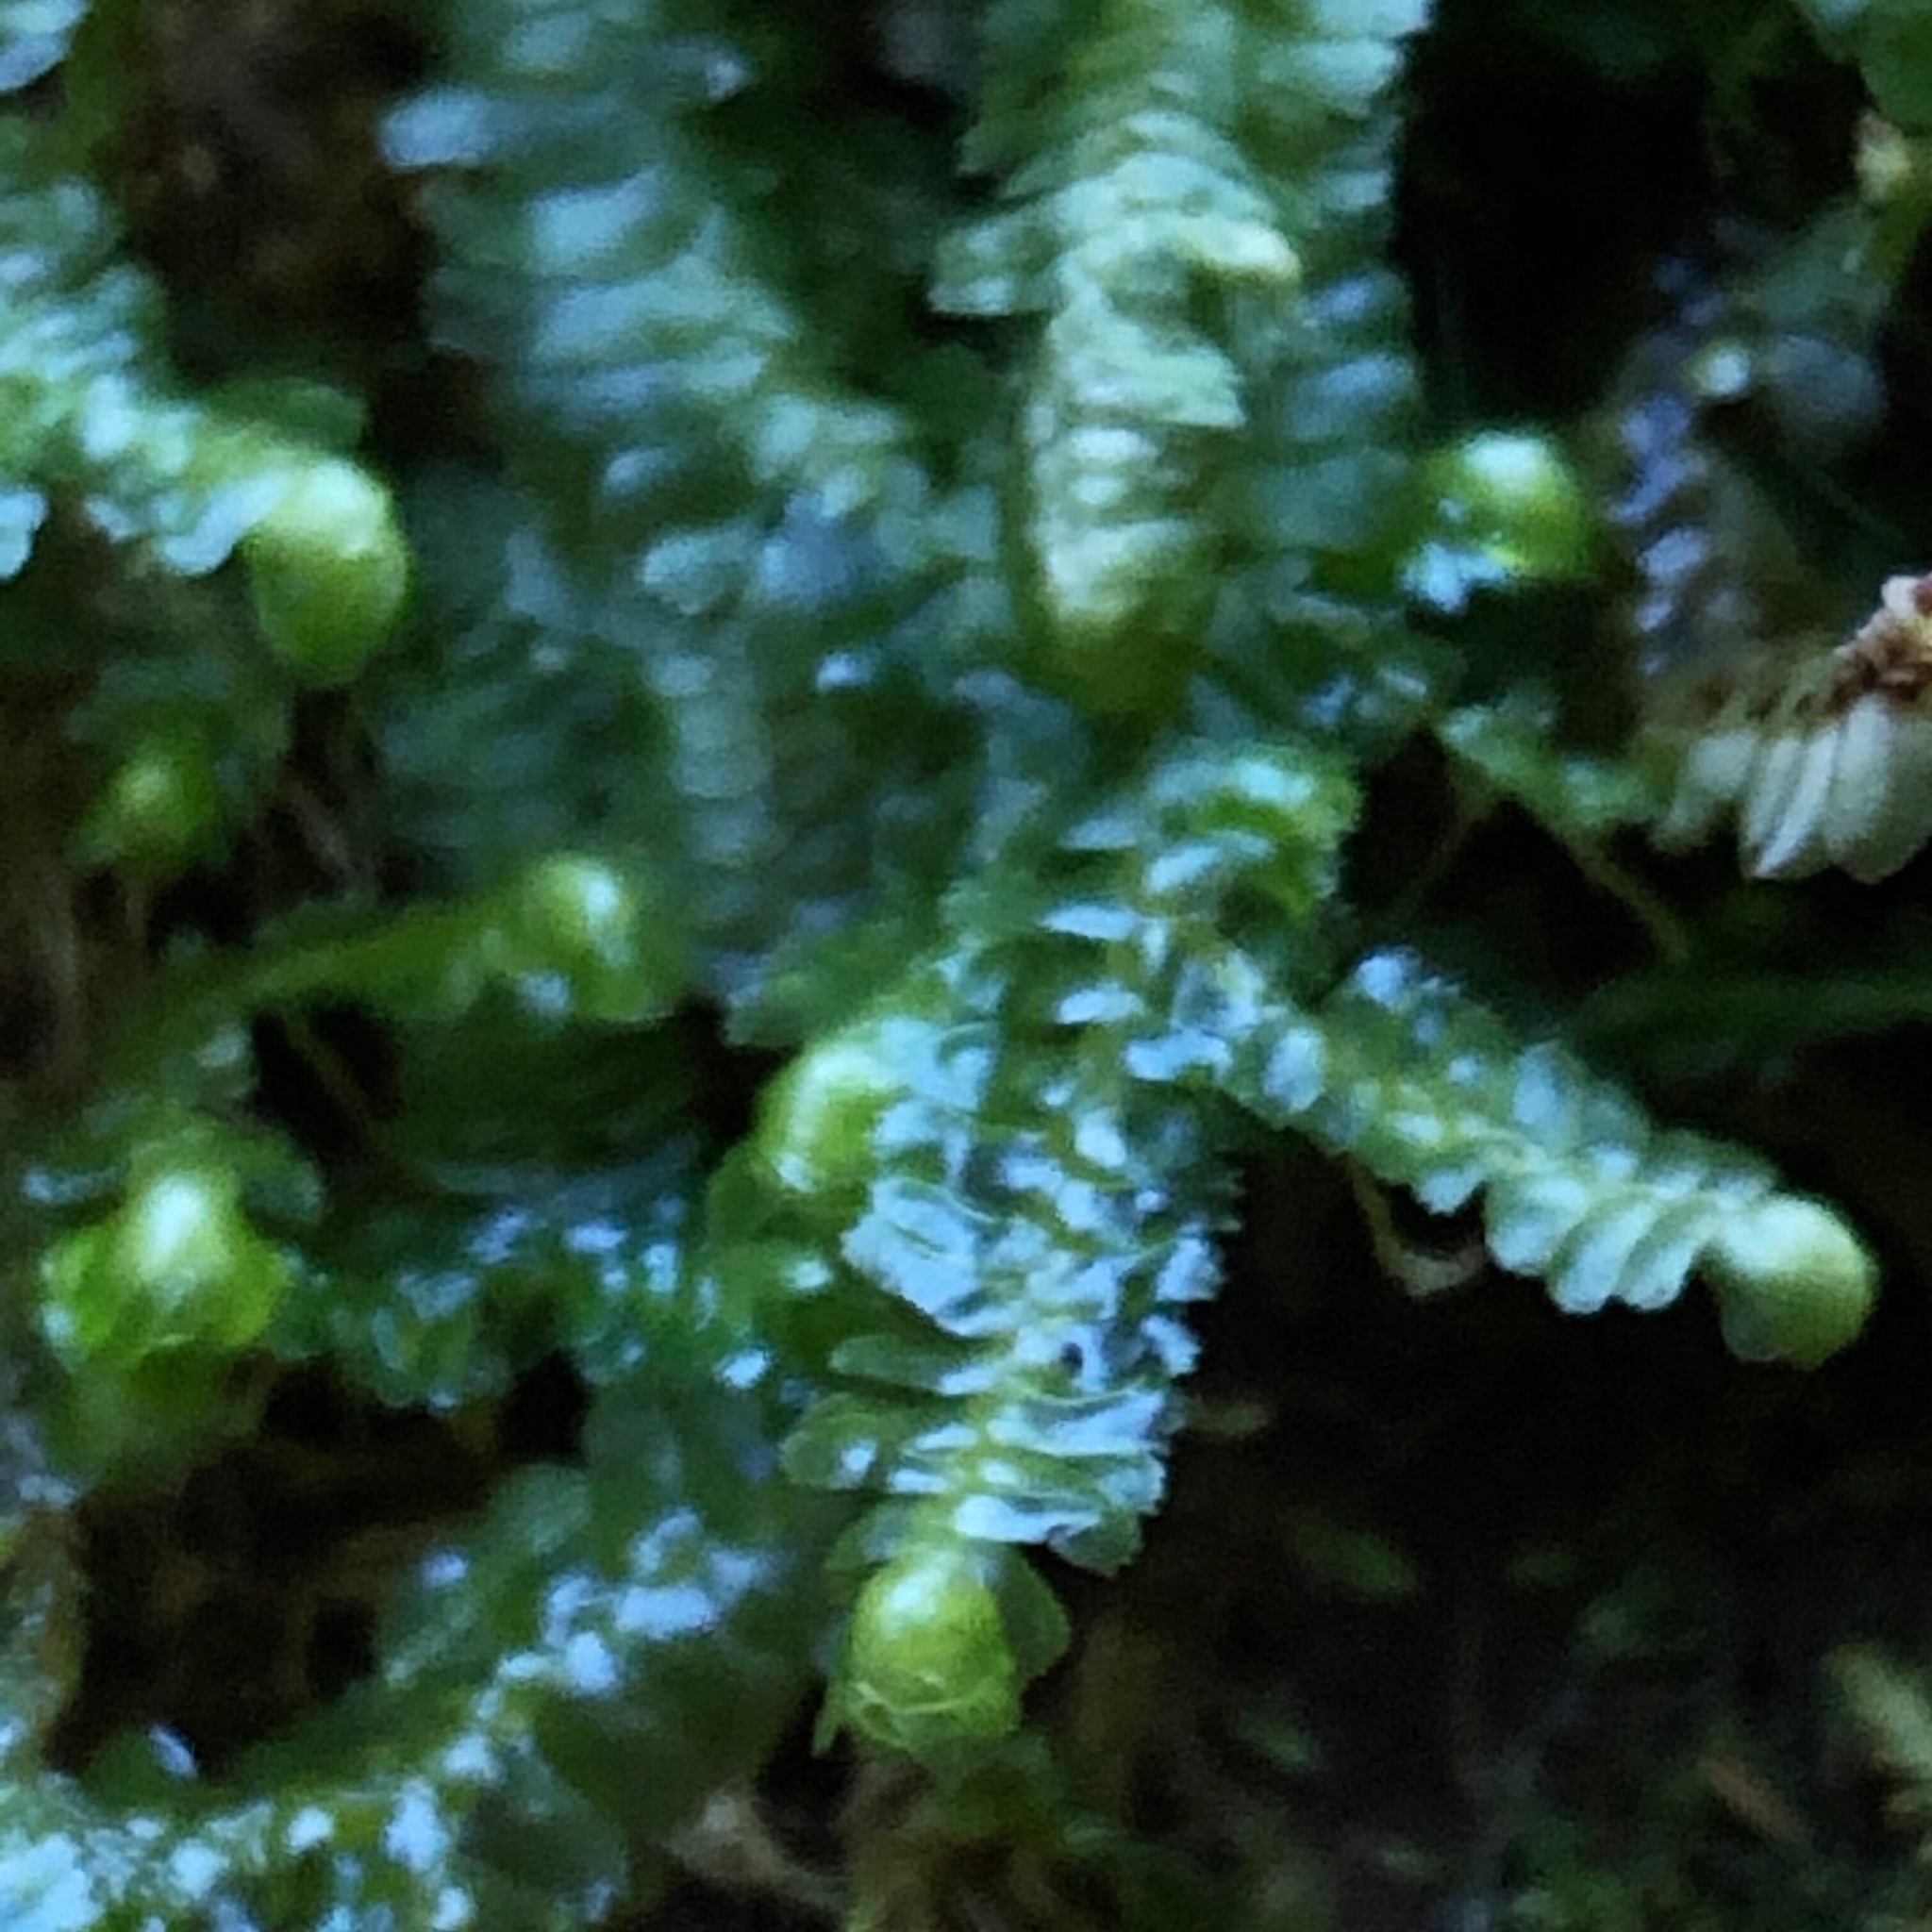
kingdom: Plantae
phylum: Marchantiophyta
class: Jungermanniopsida
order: Jungermanniales
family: Lepidoziaceae
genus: Bazzania
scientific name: Bazzania trilobata
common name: Three-lobed whipwort
